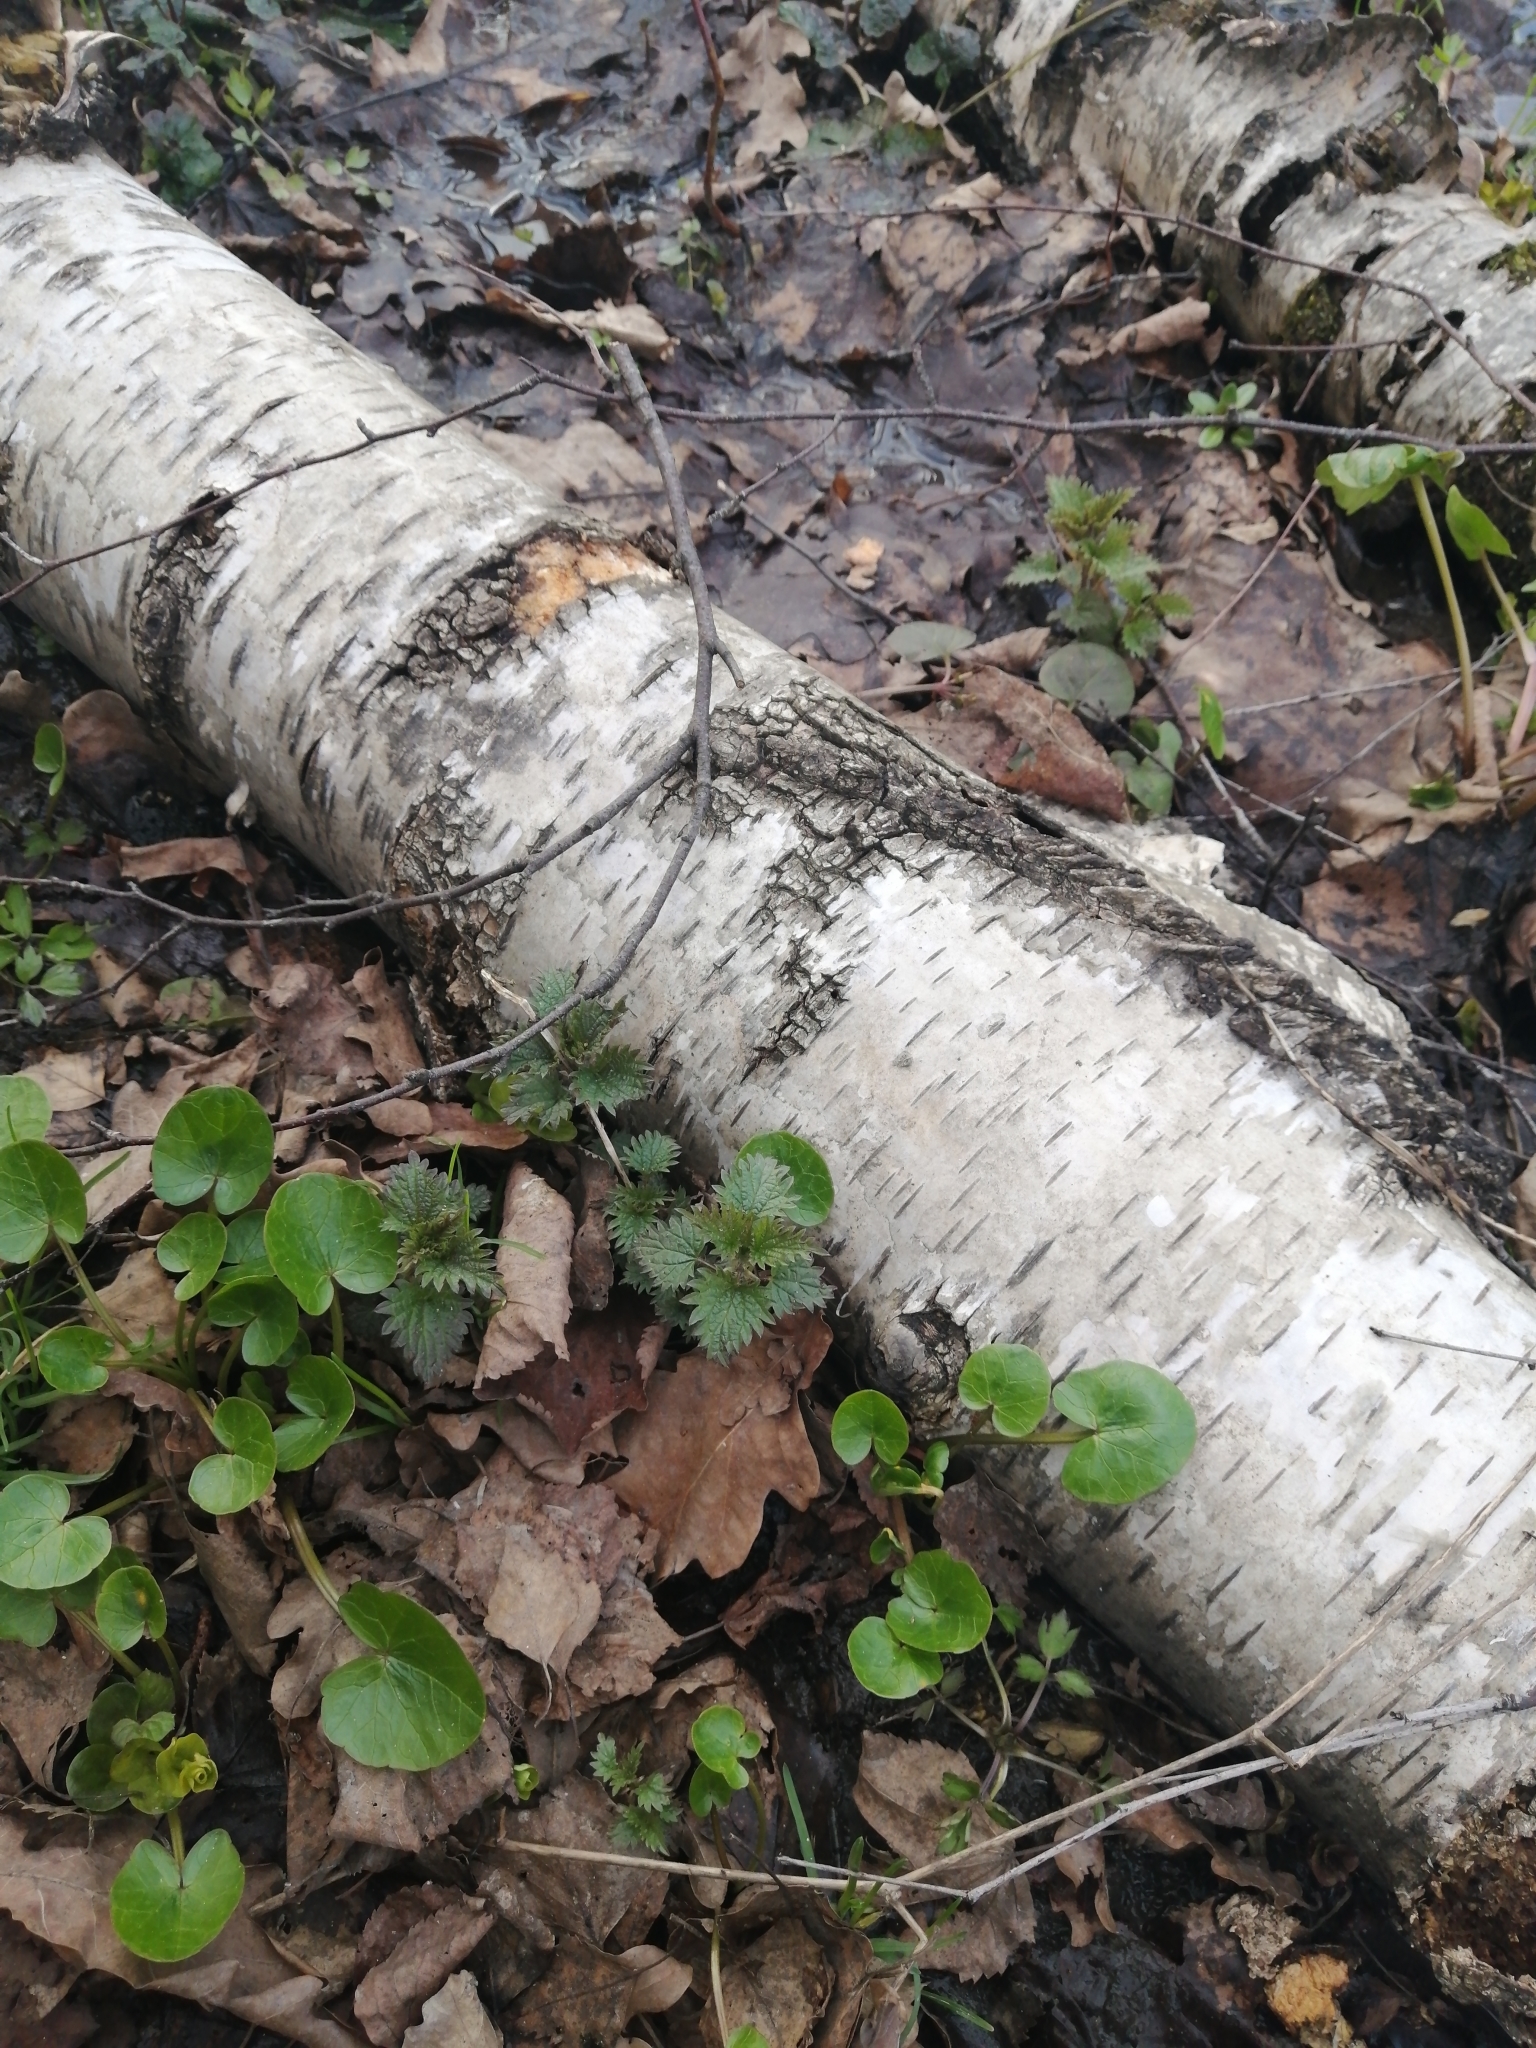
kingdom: Plantae
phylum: Tracheophyta
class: Magnoliopsida
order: Rosales
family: Urticaceae
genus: Urtica
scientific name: Urtica dioica
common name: Common nettle
